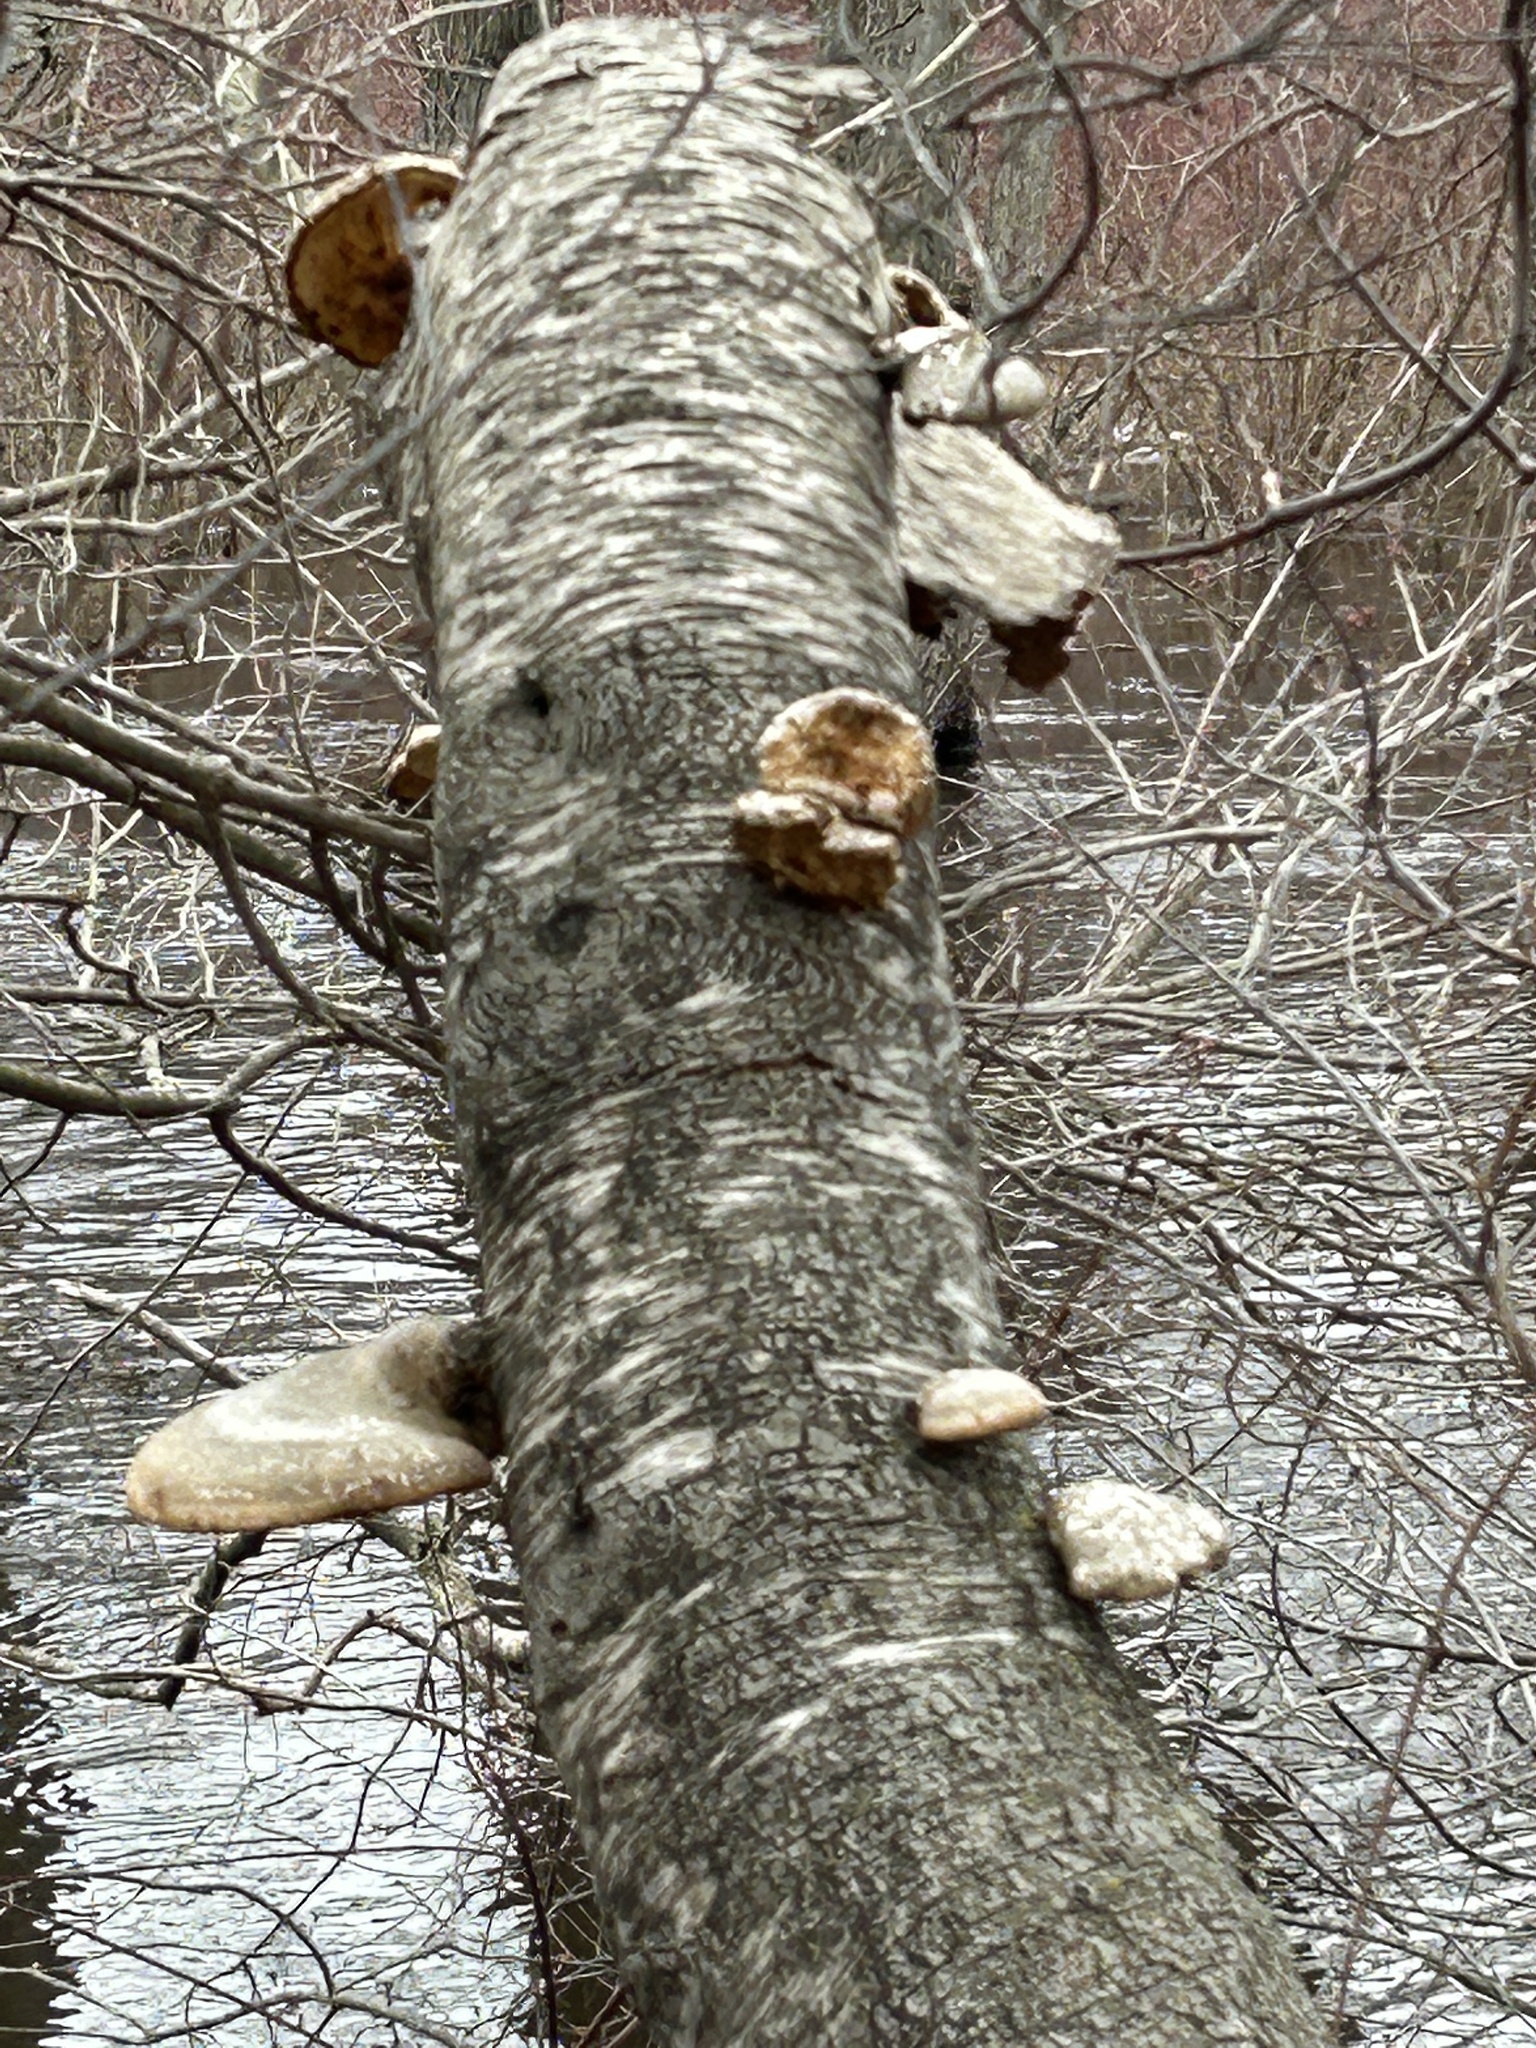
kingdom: Fungi
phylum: Basidiomycota
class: Agaricomycetes
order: Polyporales
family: Fomitopsidaceae
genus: Fomitopsis
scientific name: Fomitopsis betulina
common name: Birch polypore
